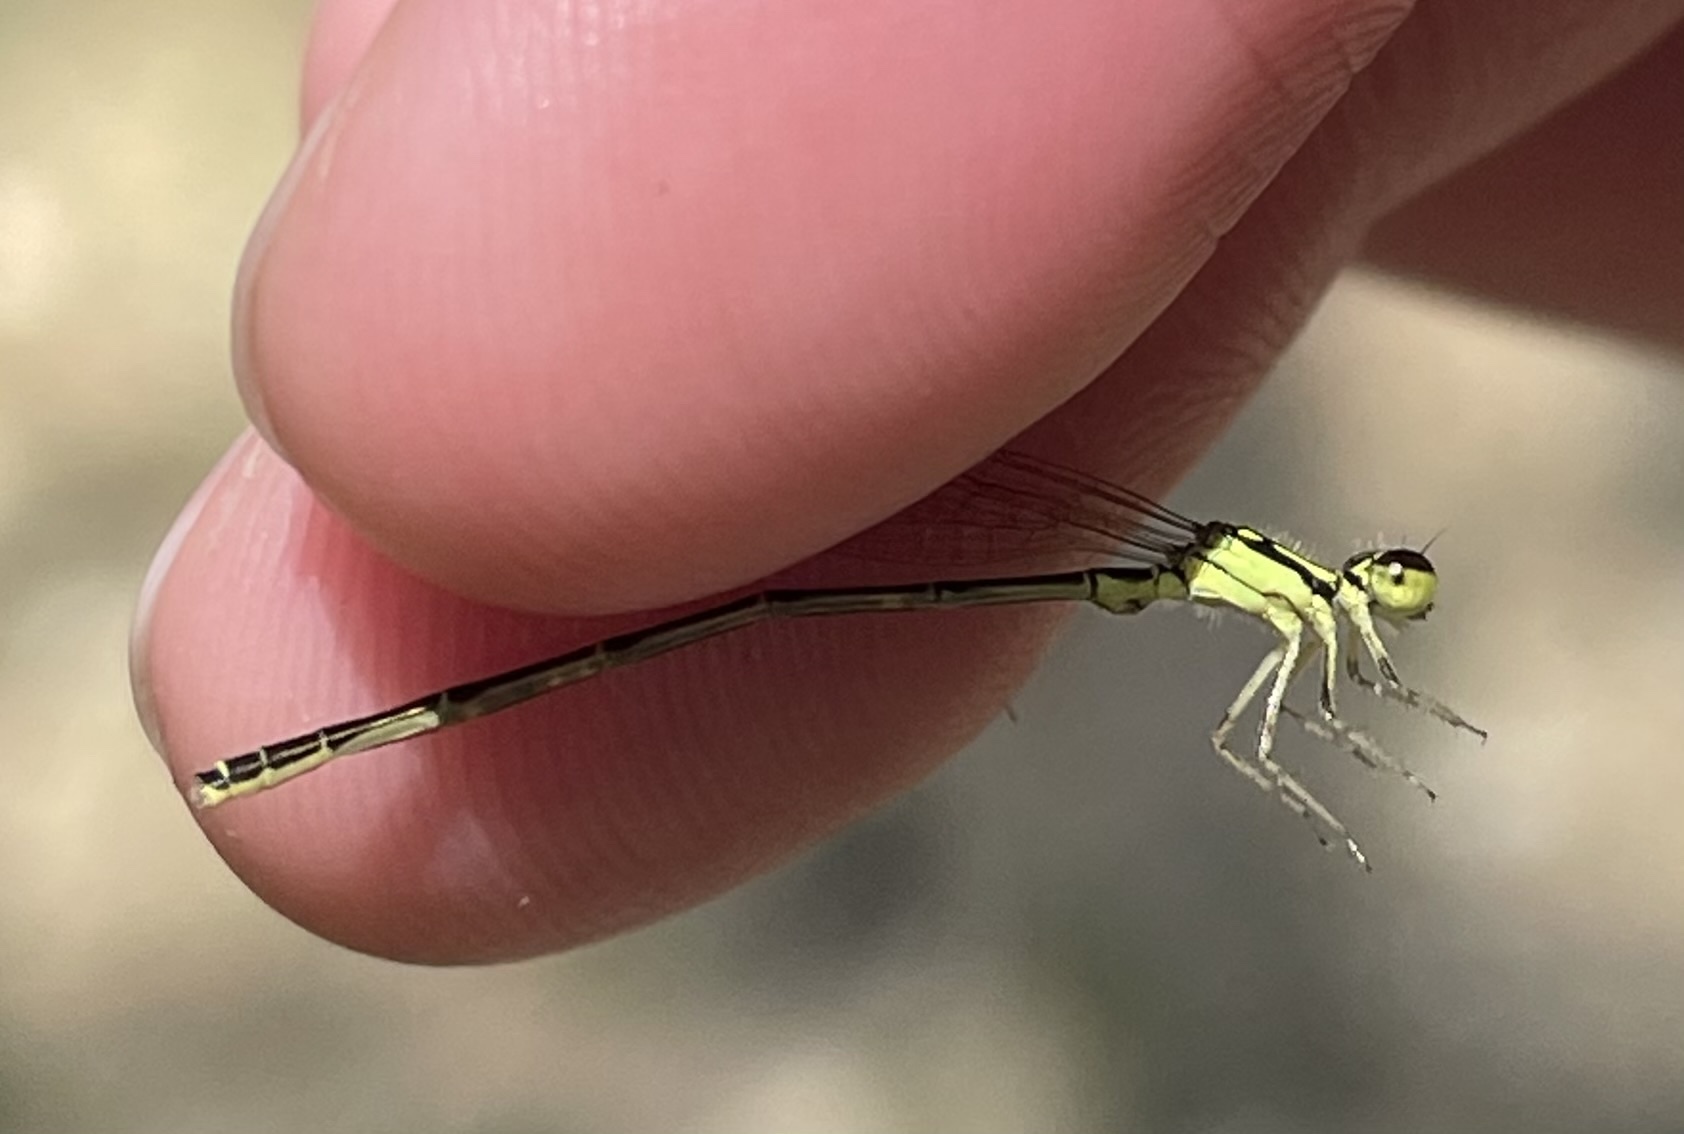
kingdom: Animalia
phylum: Arthropoda
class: Insecta
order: Odonata
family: Coenagrionidae
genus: Ischnura
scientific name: Ischnura posita
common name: Fragile forktail
